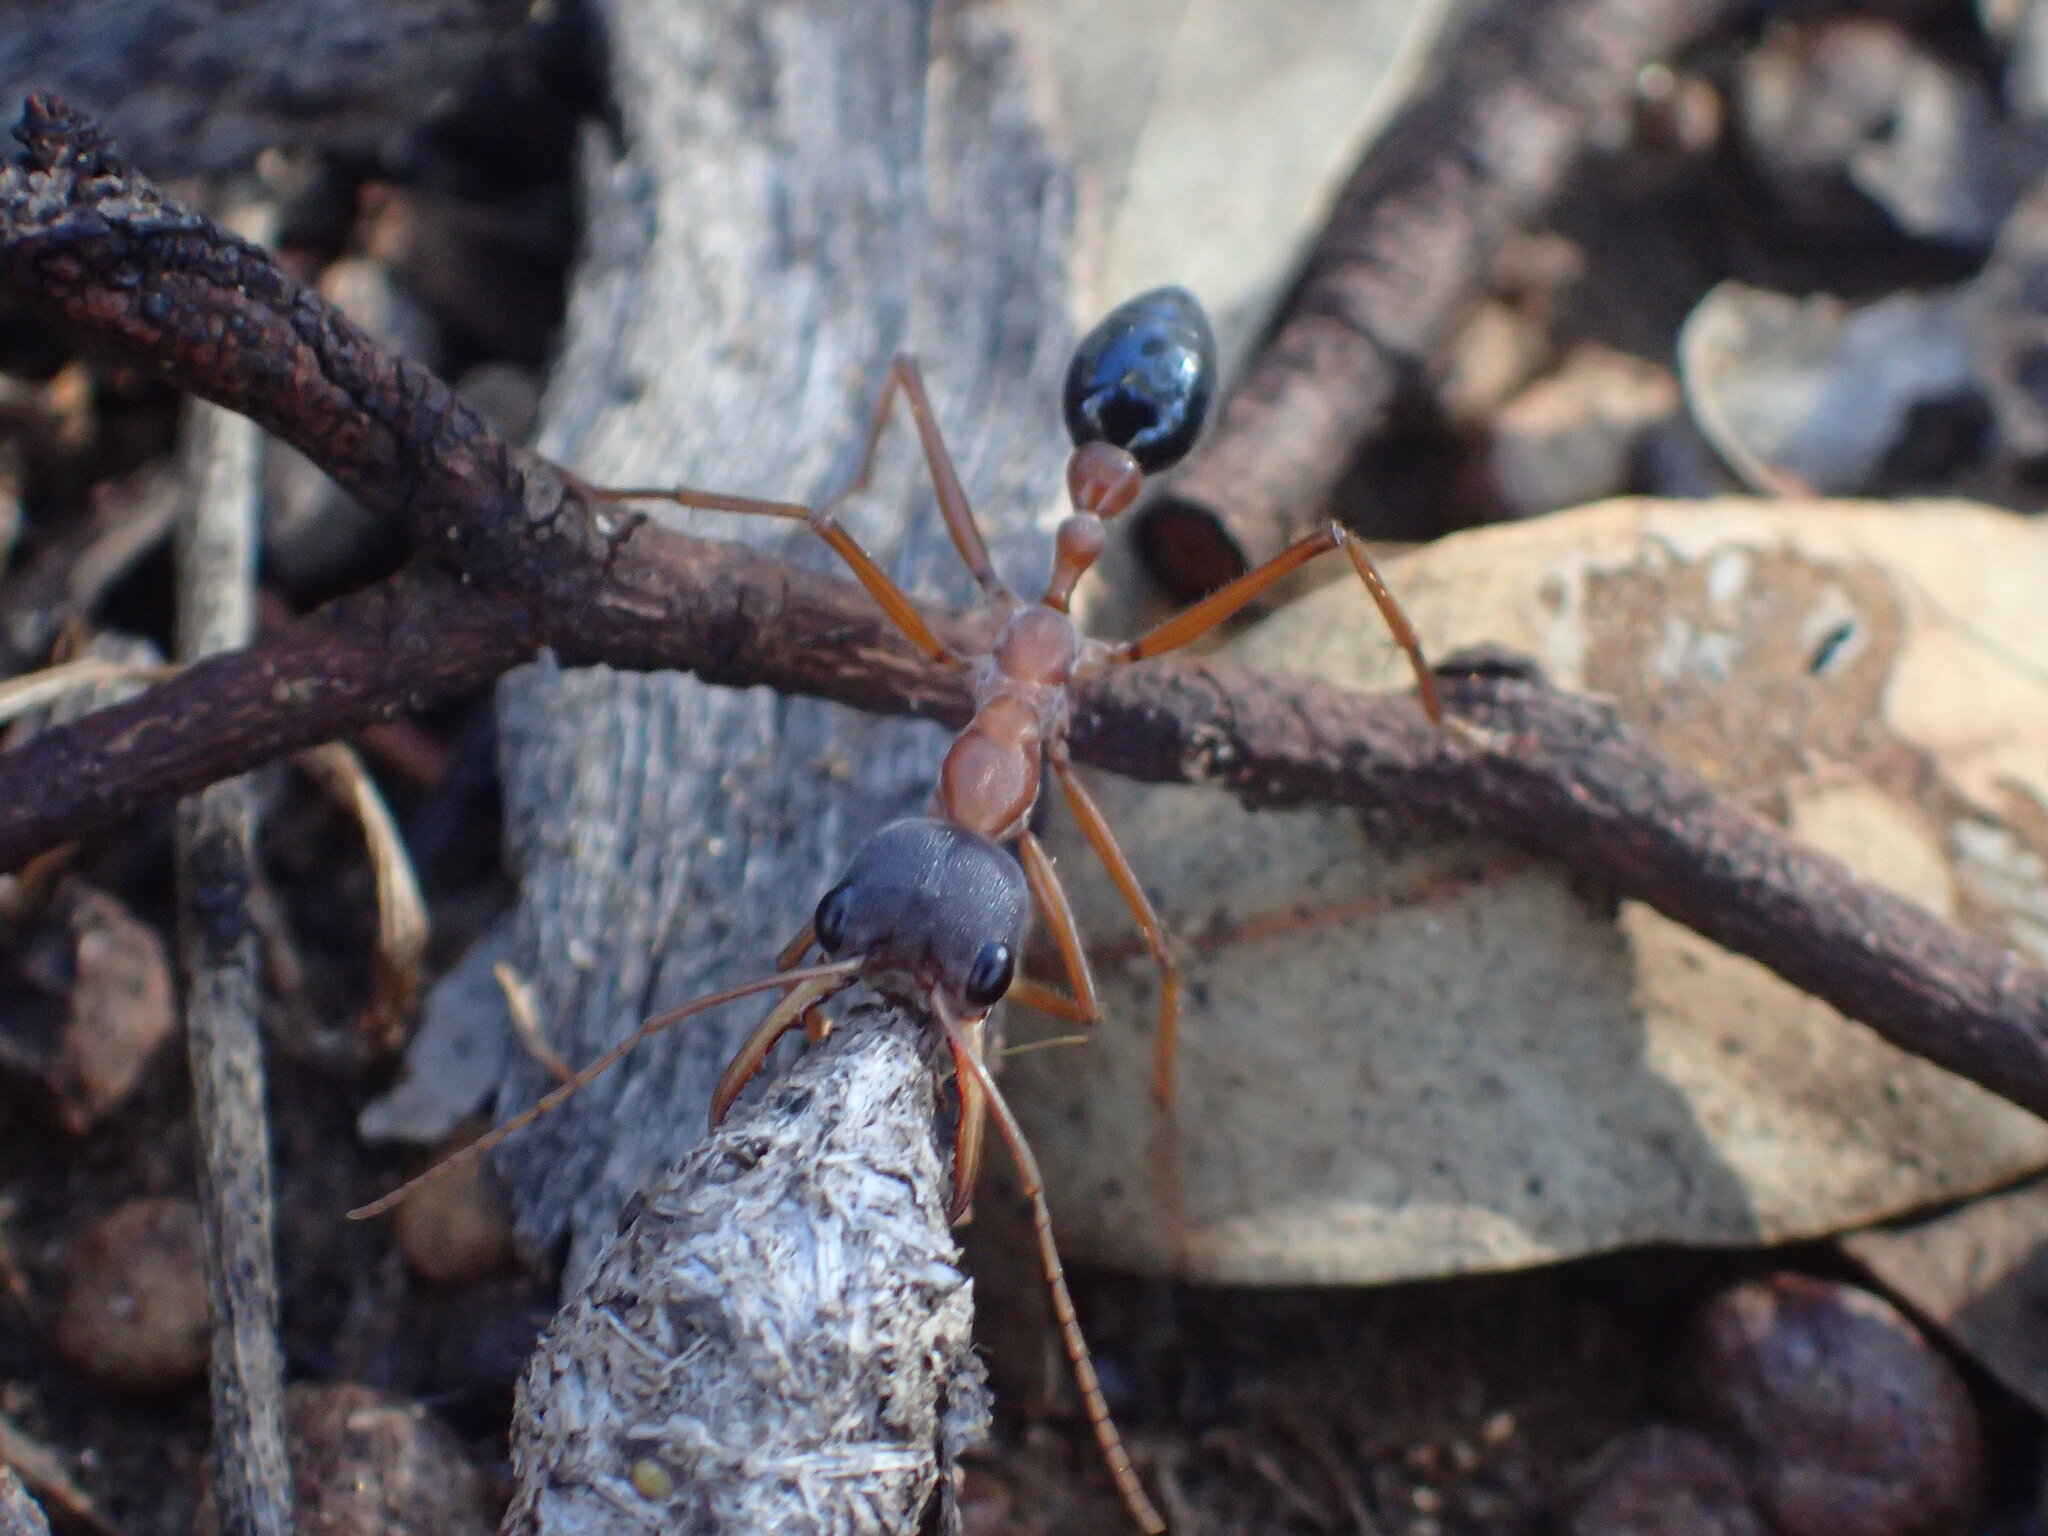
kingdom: Animalia
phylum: Arthropoda
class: Insecta
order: Hymenoptera
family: Formicidae
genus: Myrmecia
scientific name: Myrmecia forceps
